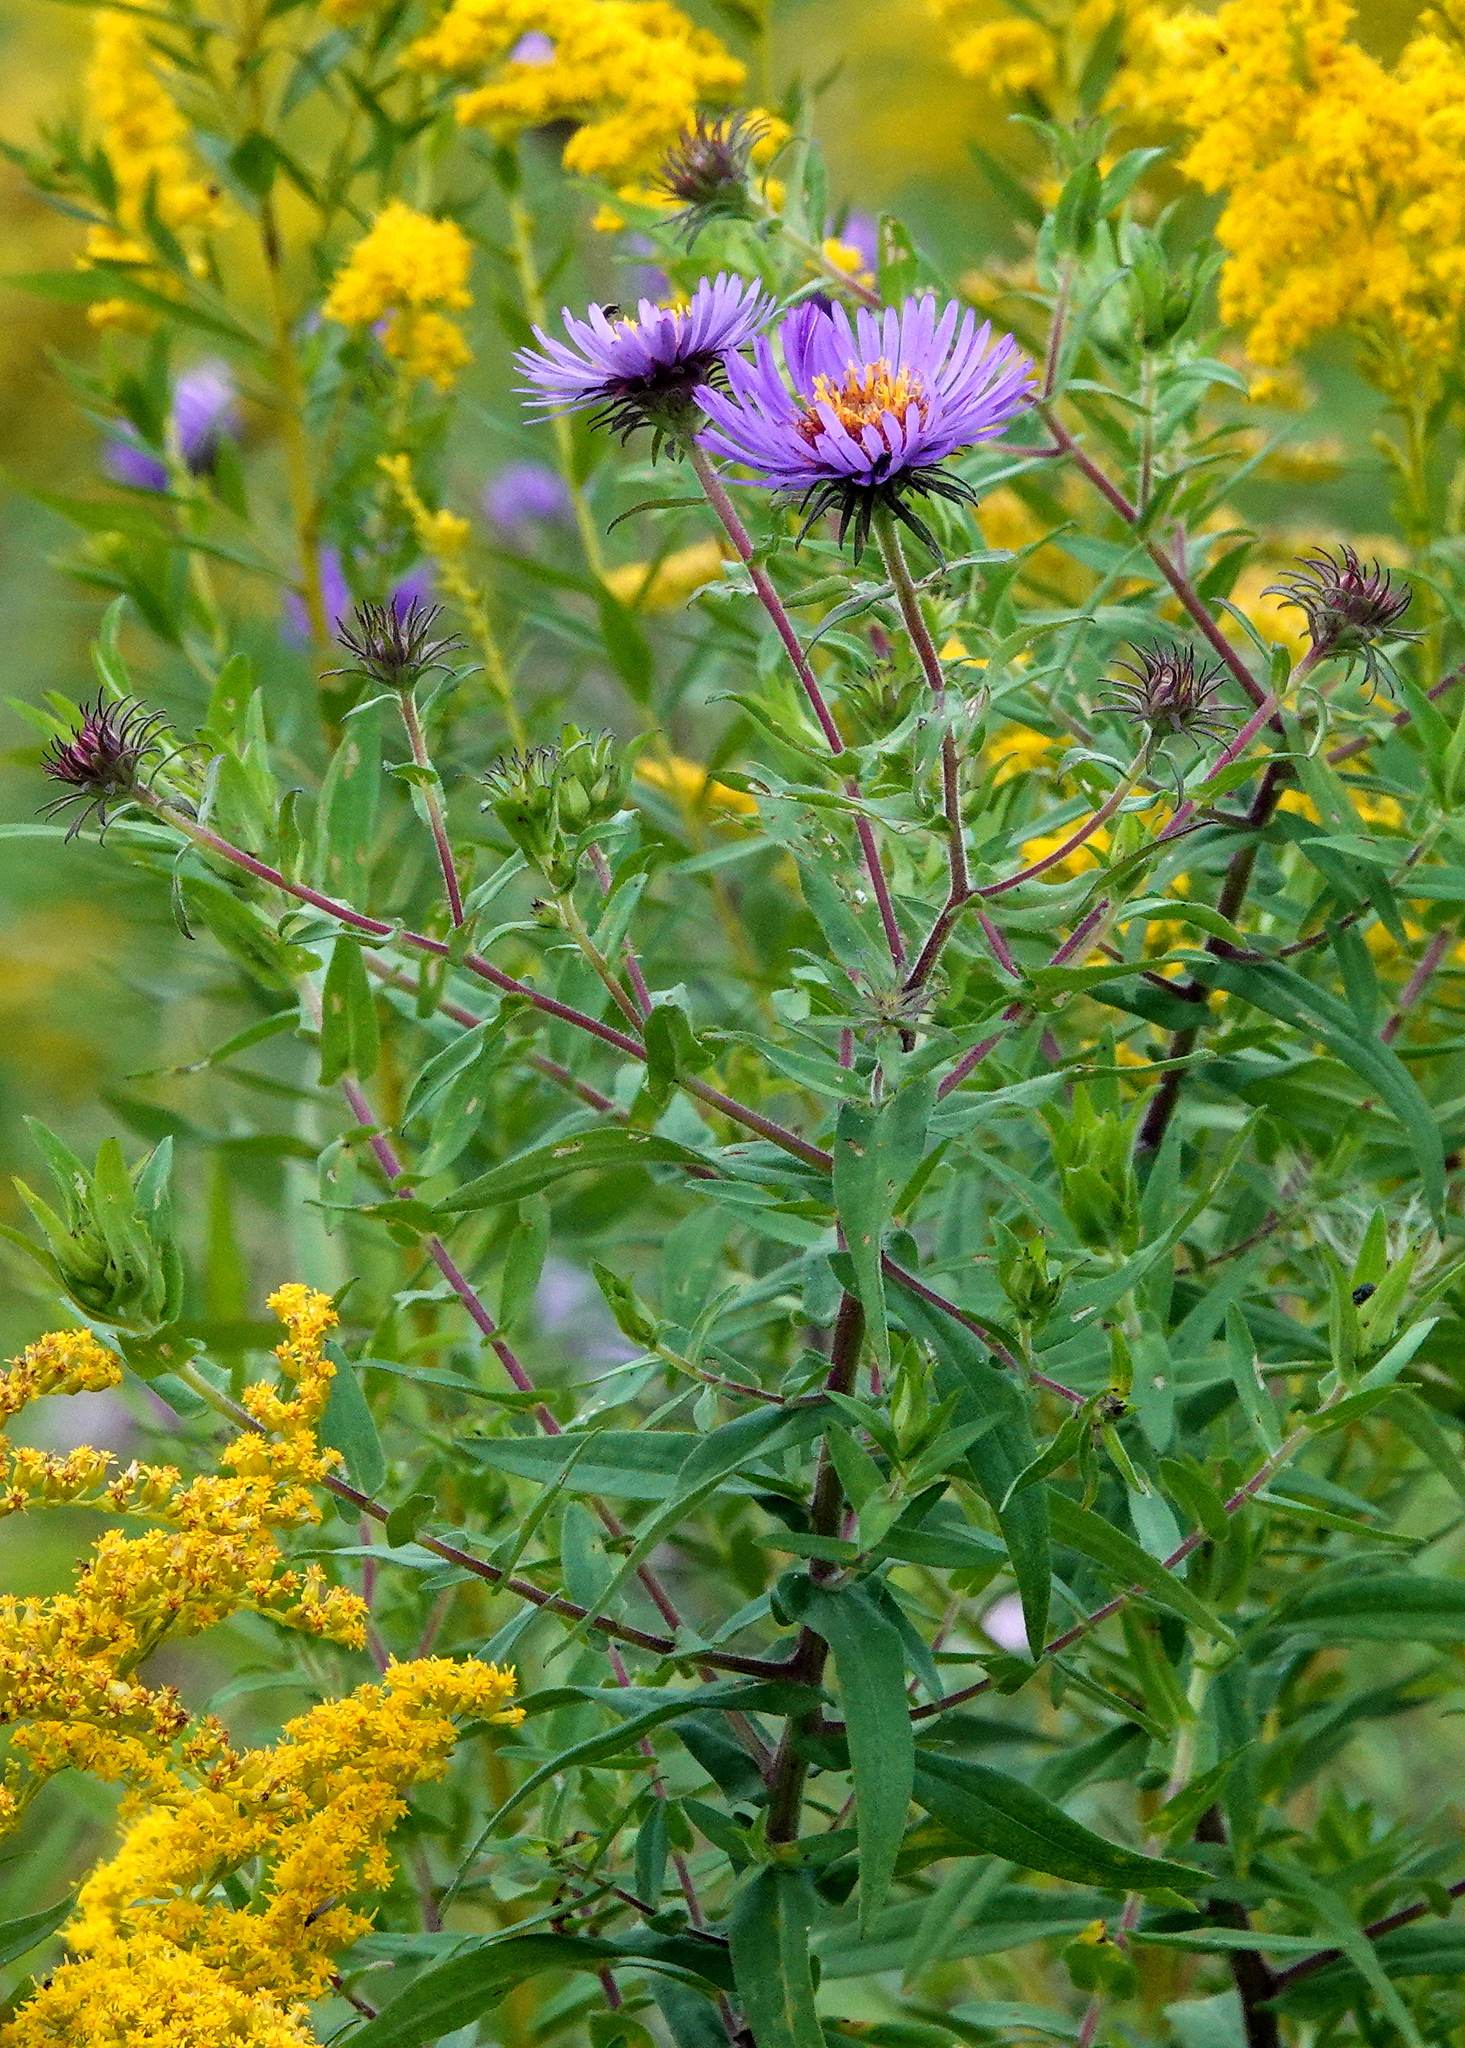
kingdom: Plantae
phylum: Tracheophyta
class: Magnoliopsida
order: Asterales
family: Asteraceae
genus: Symphyotrichum
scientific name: Symphyotrichum novae-angliae
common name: Michaelmas daisy
